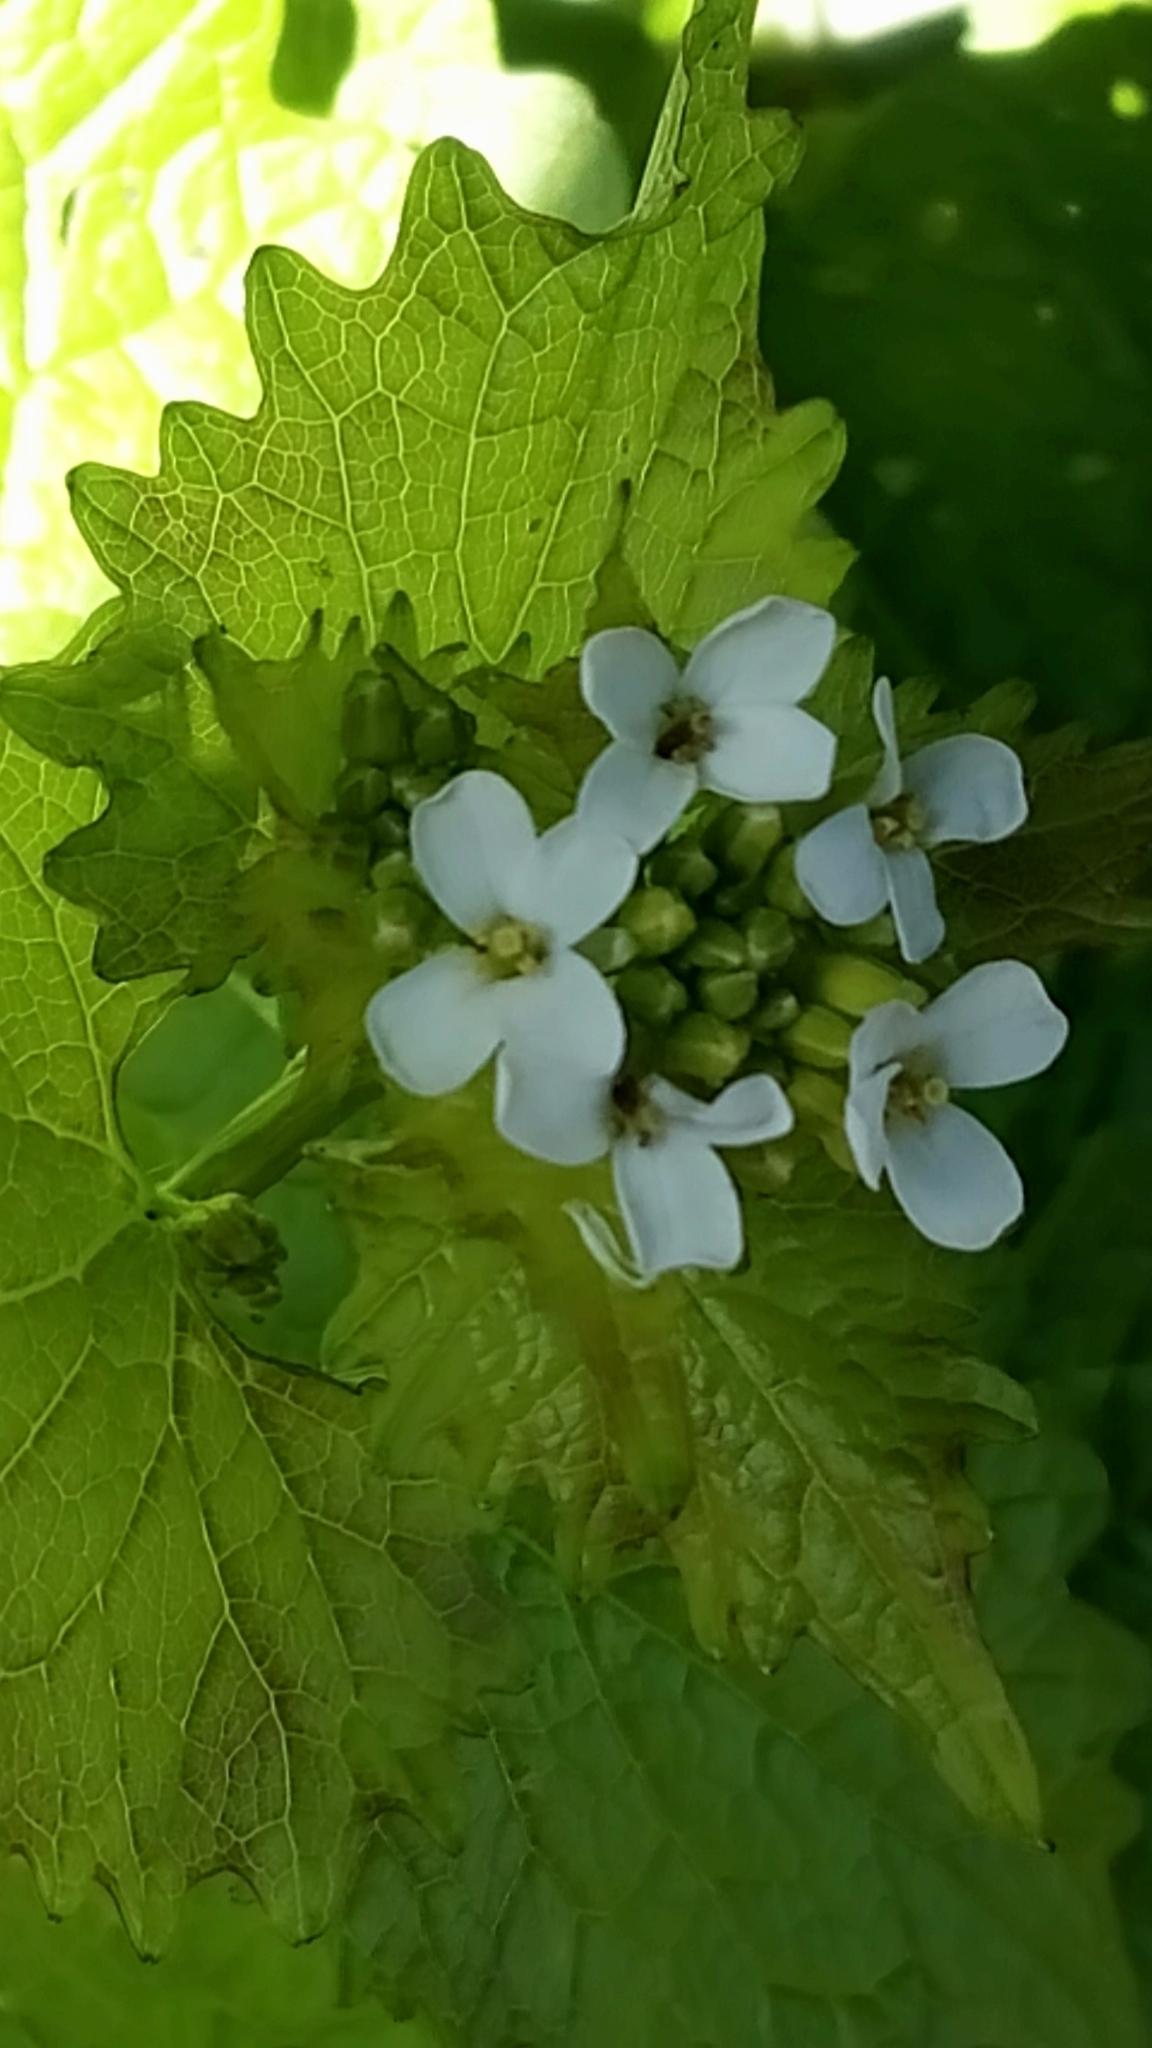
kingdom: Plantae
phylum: Tracheophyta
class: Magnoliopsida
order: Brassicales
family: Brassicaceae
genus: Alliaria
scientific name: Alliaria petiolata
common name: Garlic mustard
